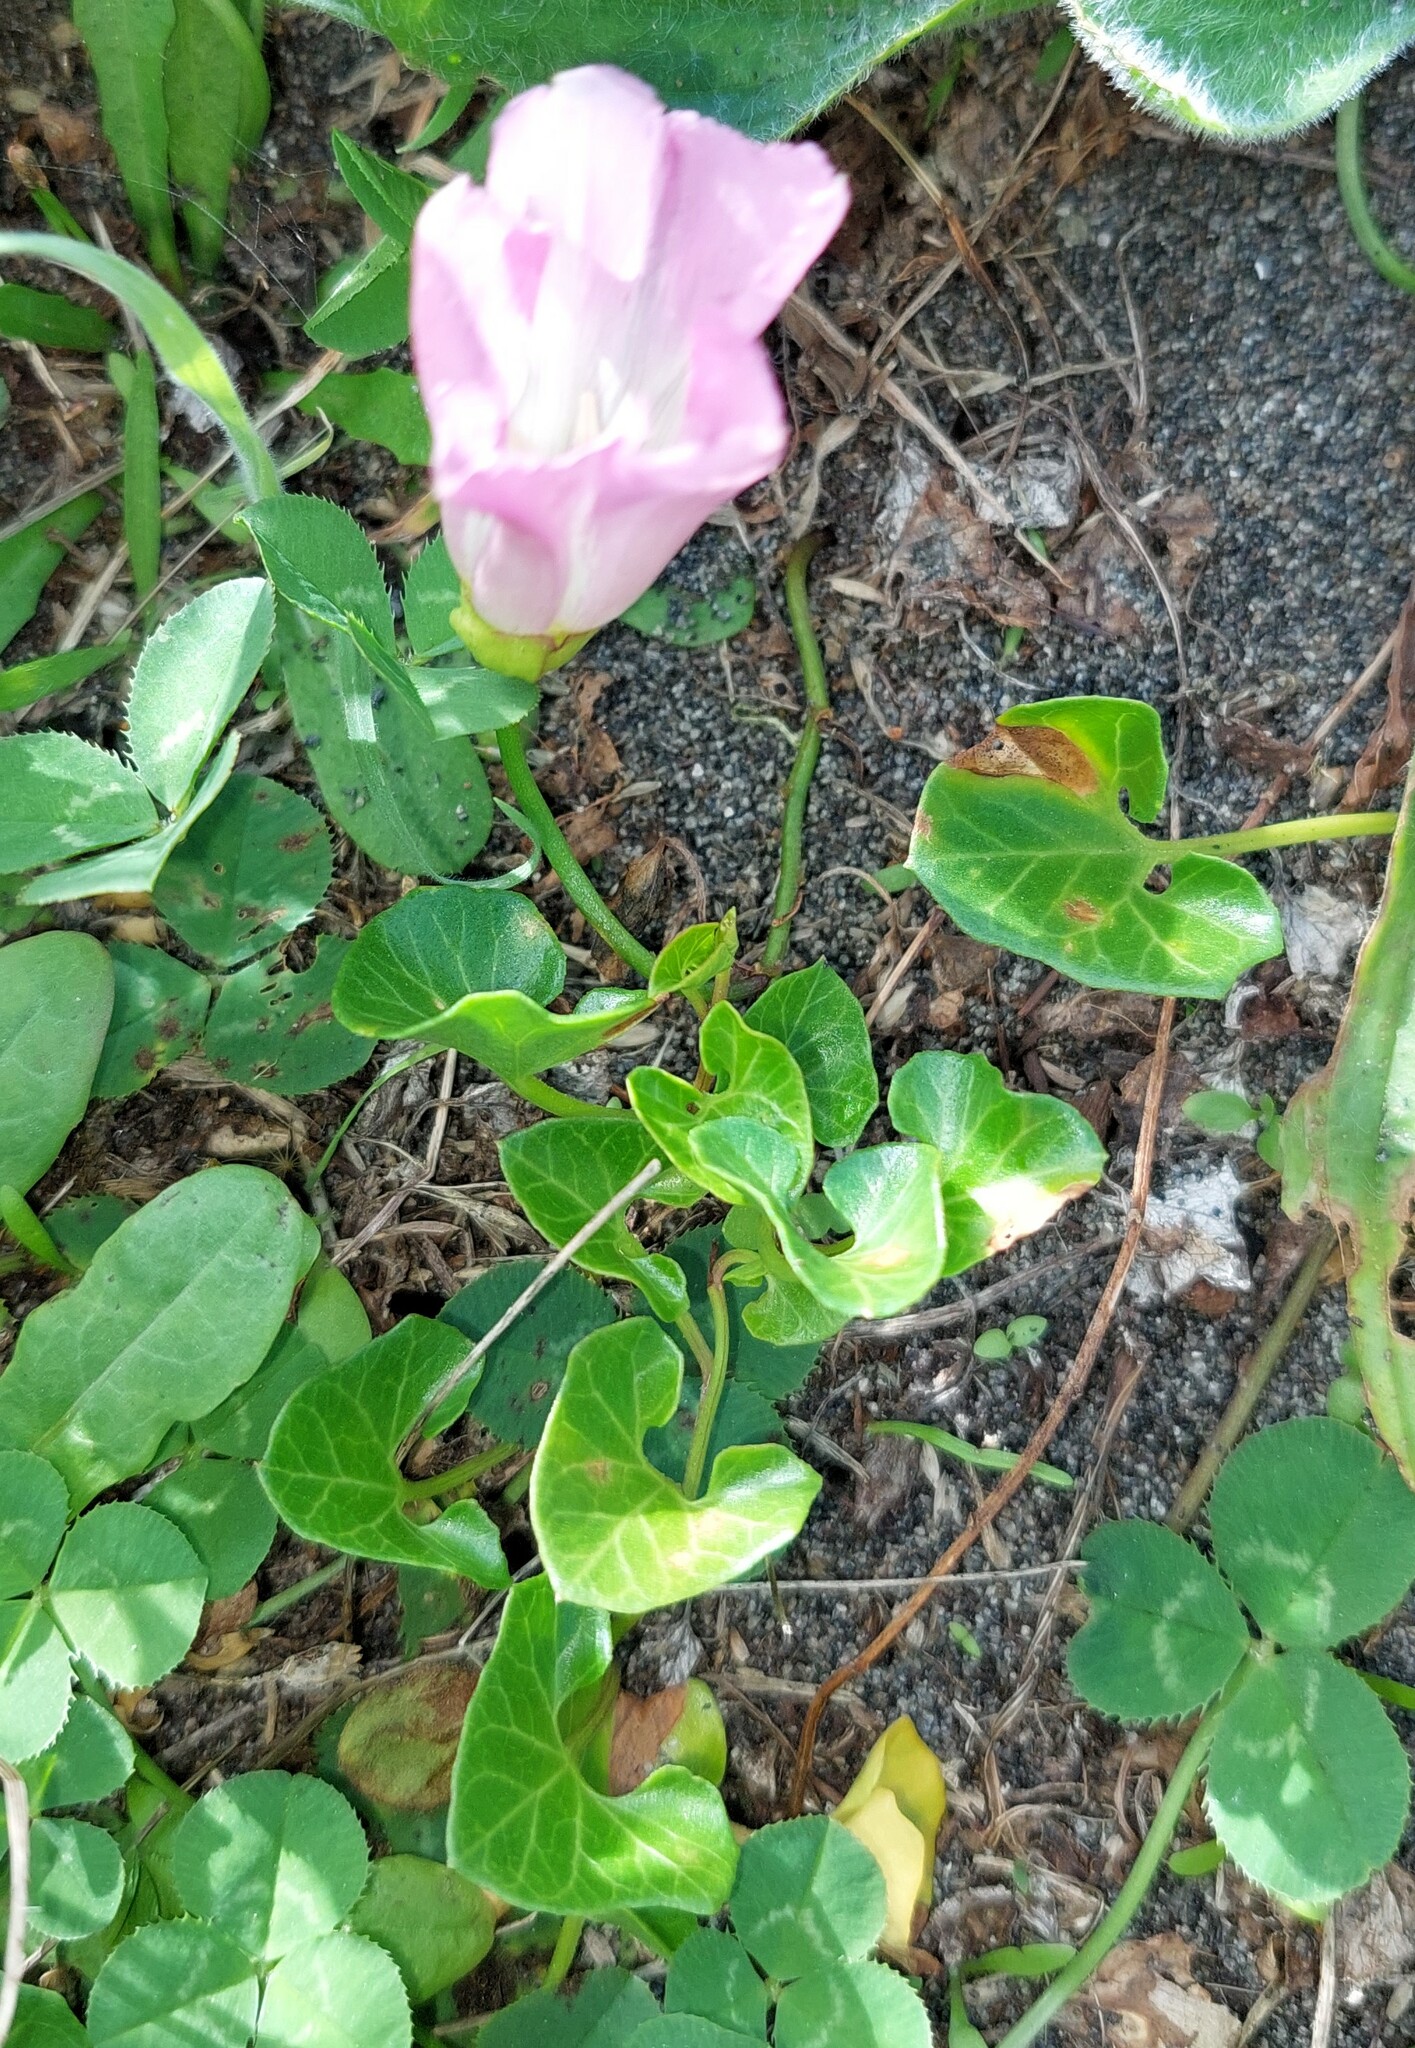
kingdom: Plantae
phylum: Tracheophyta
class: Magnoliopsida
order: Solanales
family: Convolvulaceae
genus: Calystegia
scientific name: Calystegia soldanella
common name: Sea bindweed
